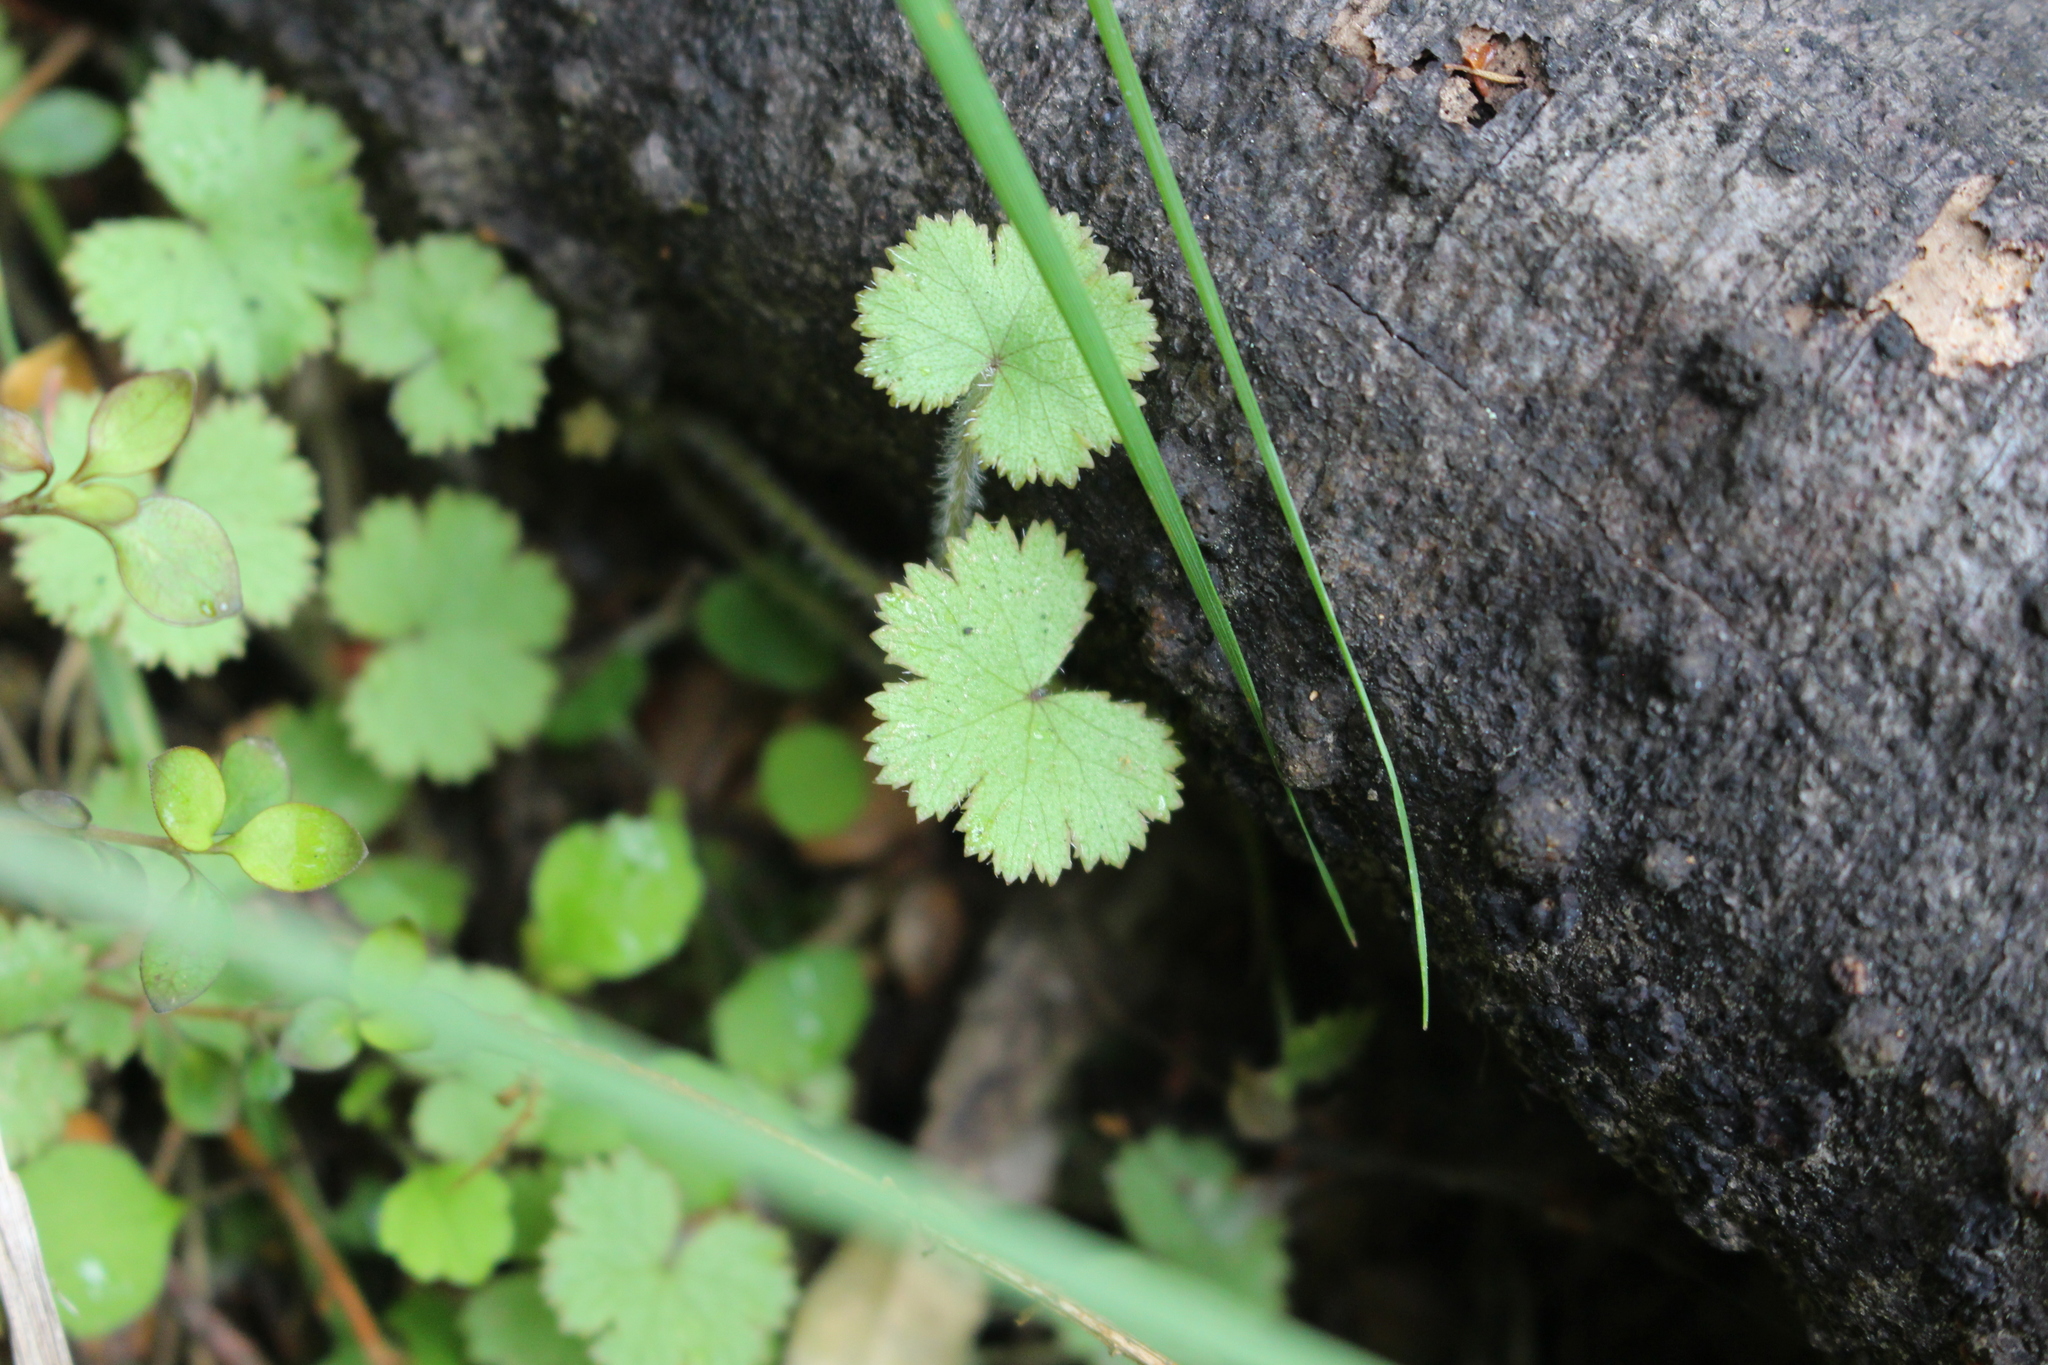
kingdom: Plantae
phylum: Tracheophyta
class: Magnoliopsida
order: Apiales
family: Araliaceae
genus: Hydrocotyle
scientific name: Hydrocotyle moschata
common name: Hairy pennywort
